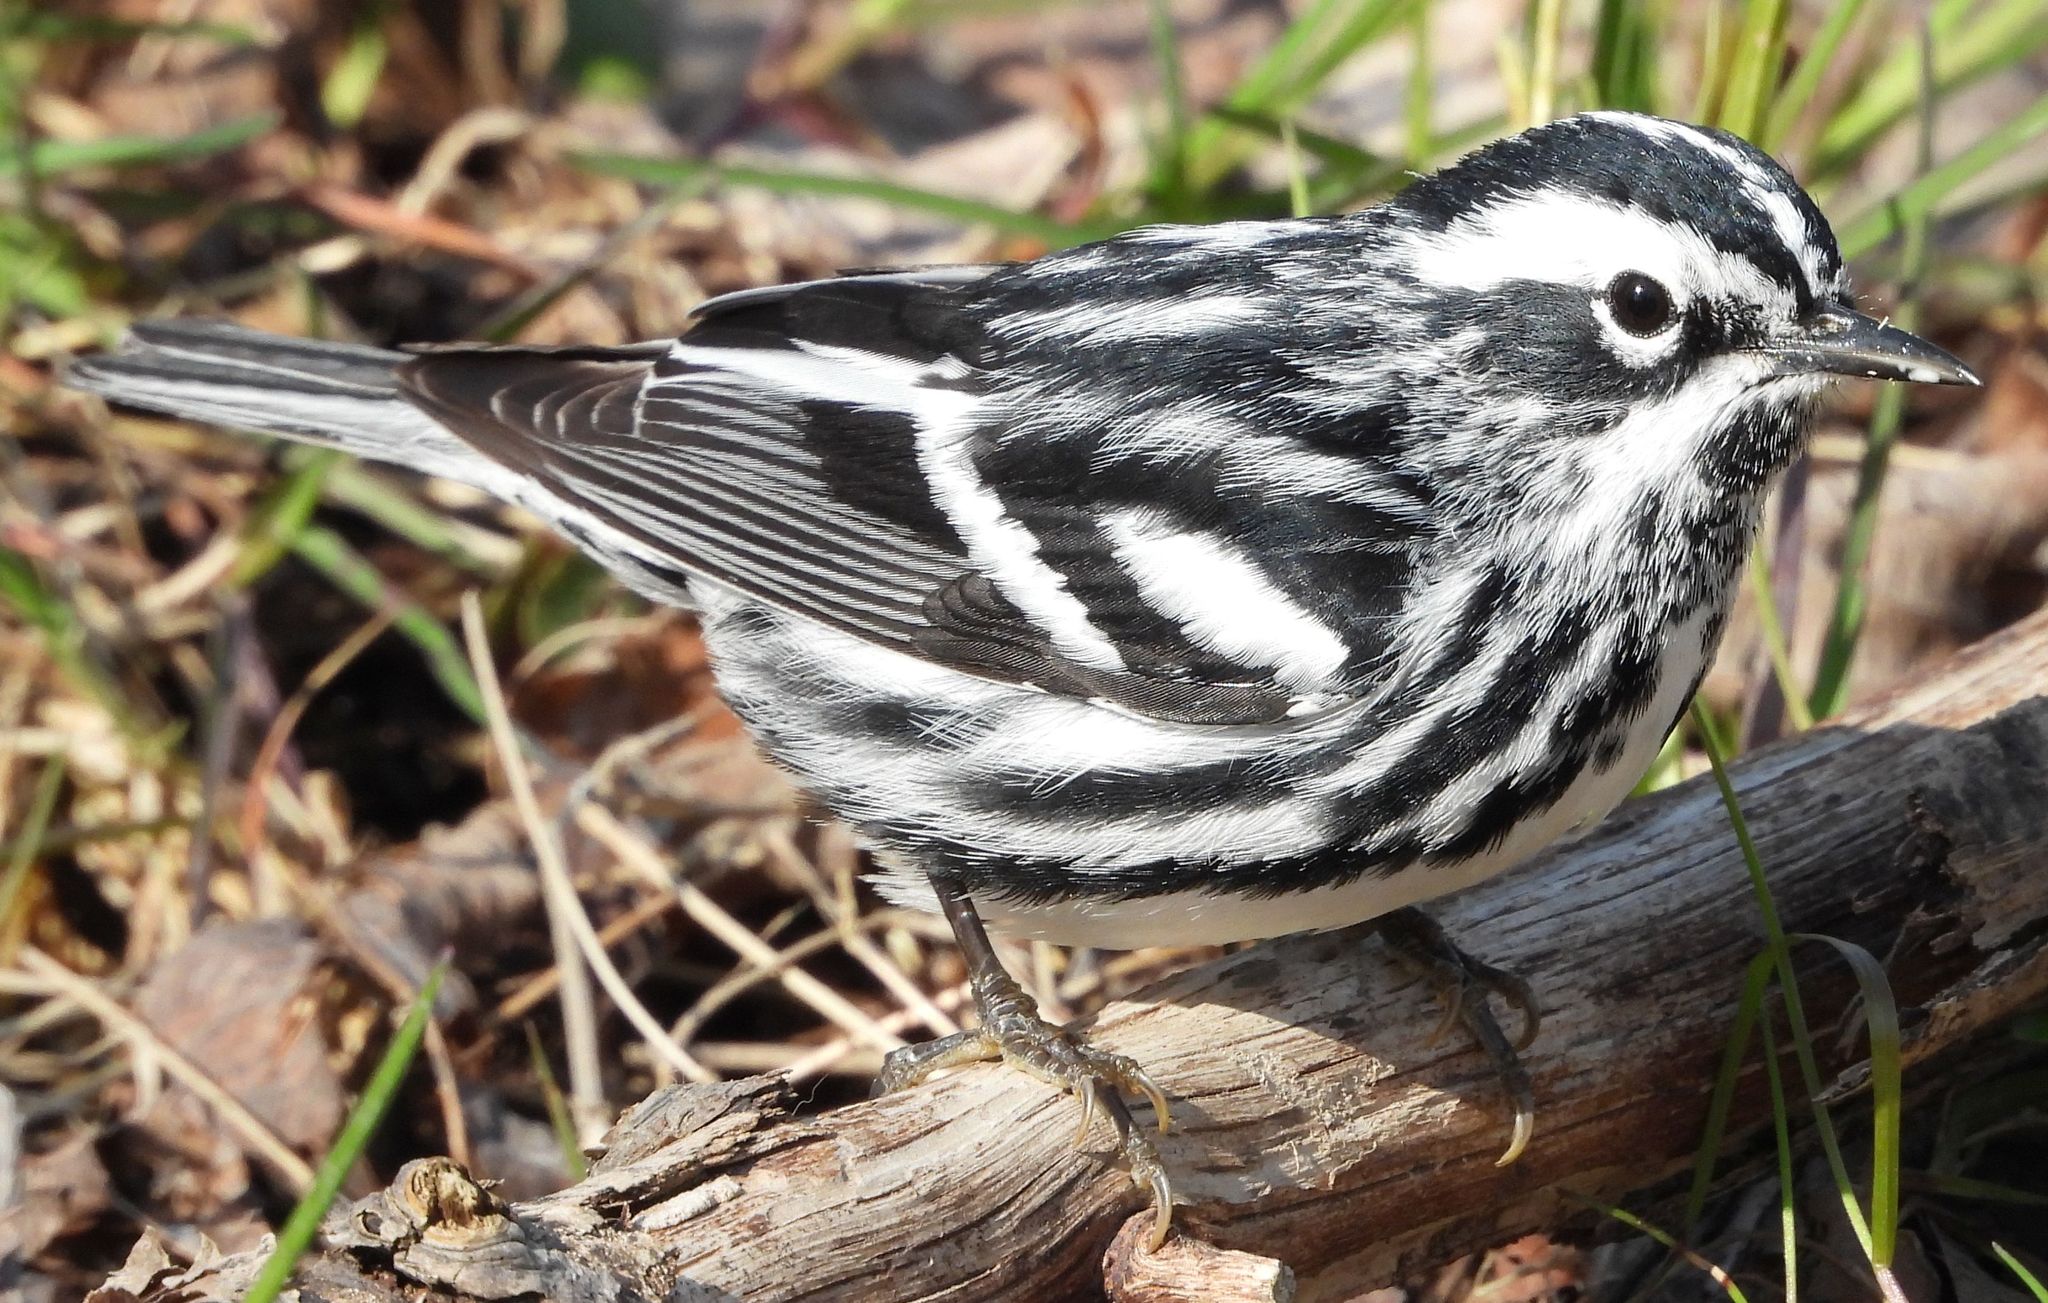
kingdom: Animalia
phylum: Chordata
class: Aves
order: Passeriformes
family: Parulidae
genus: Mniotilta
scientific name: Mniotilta varia
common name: Black-and-white warbler
